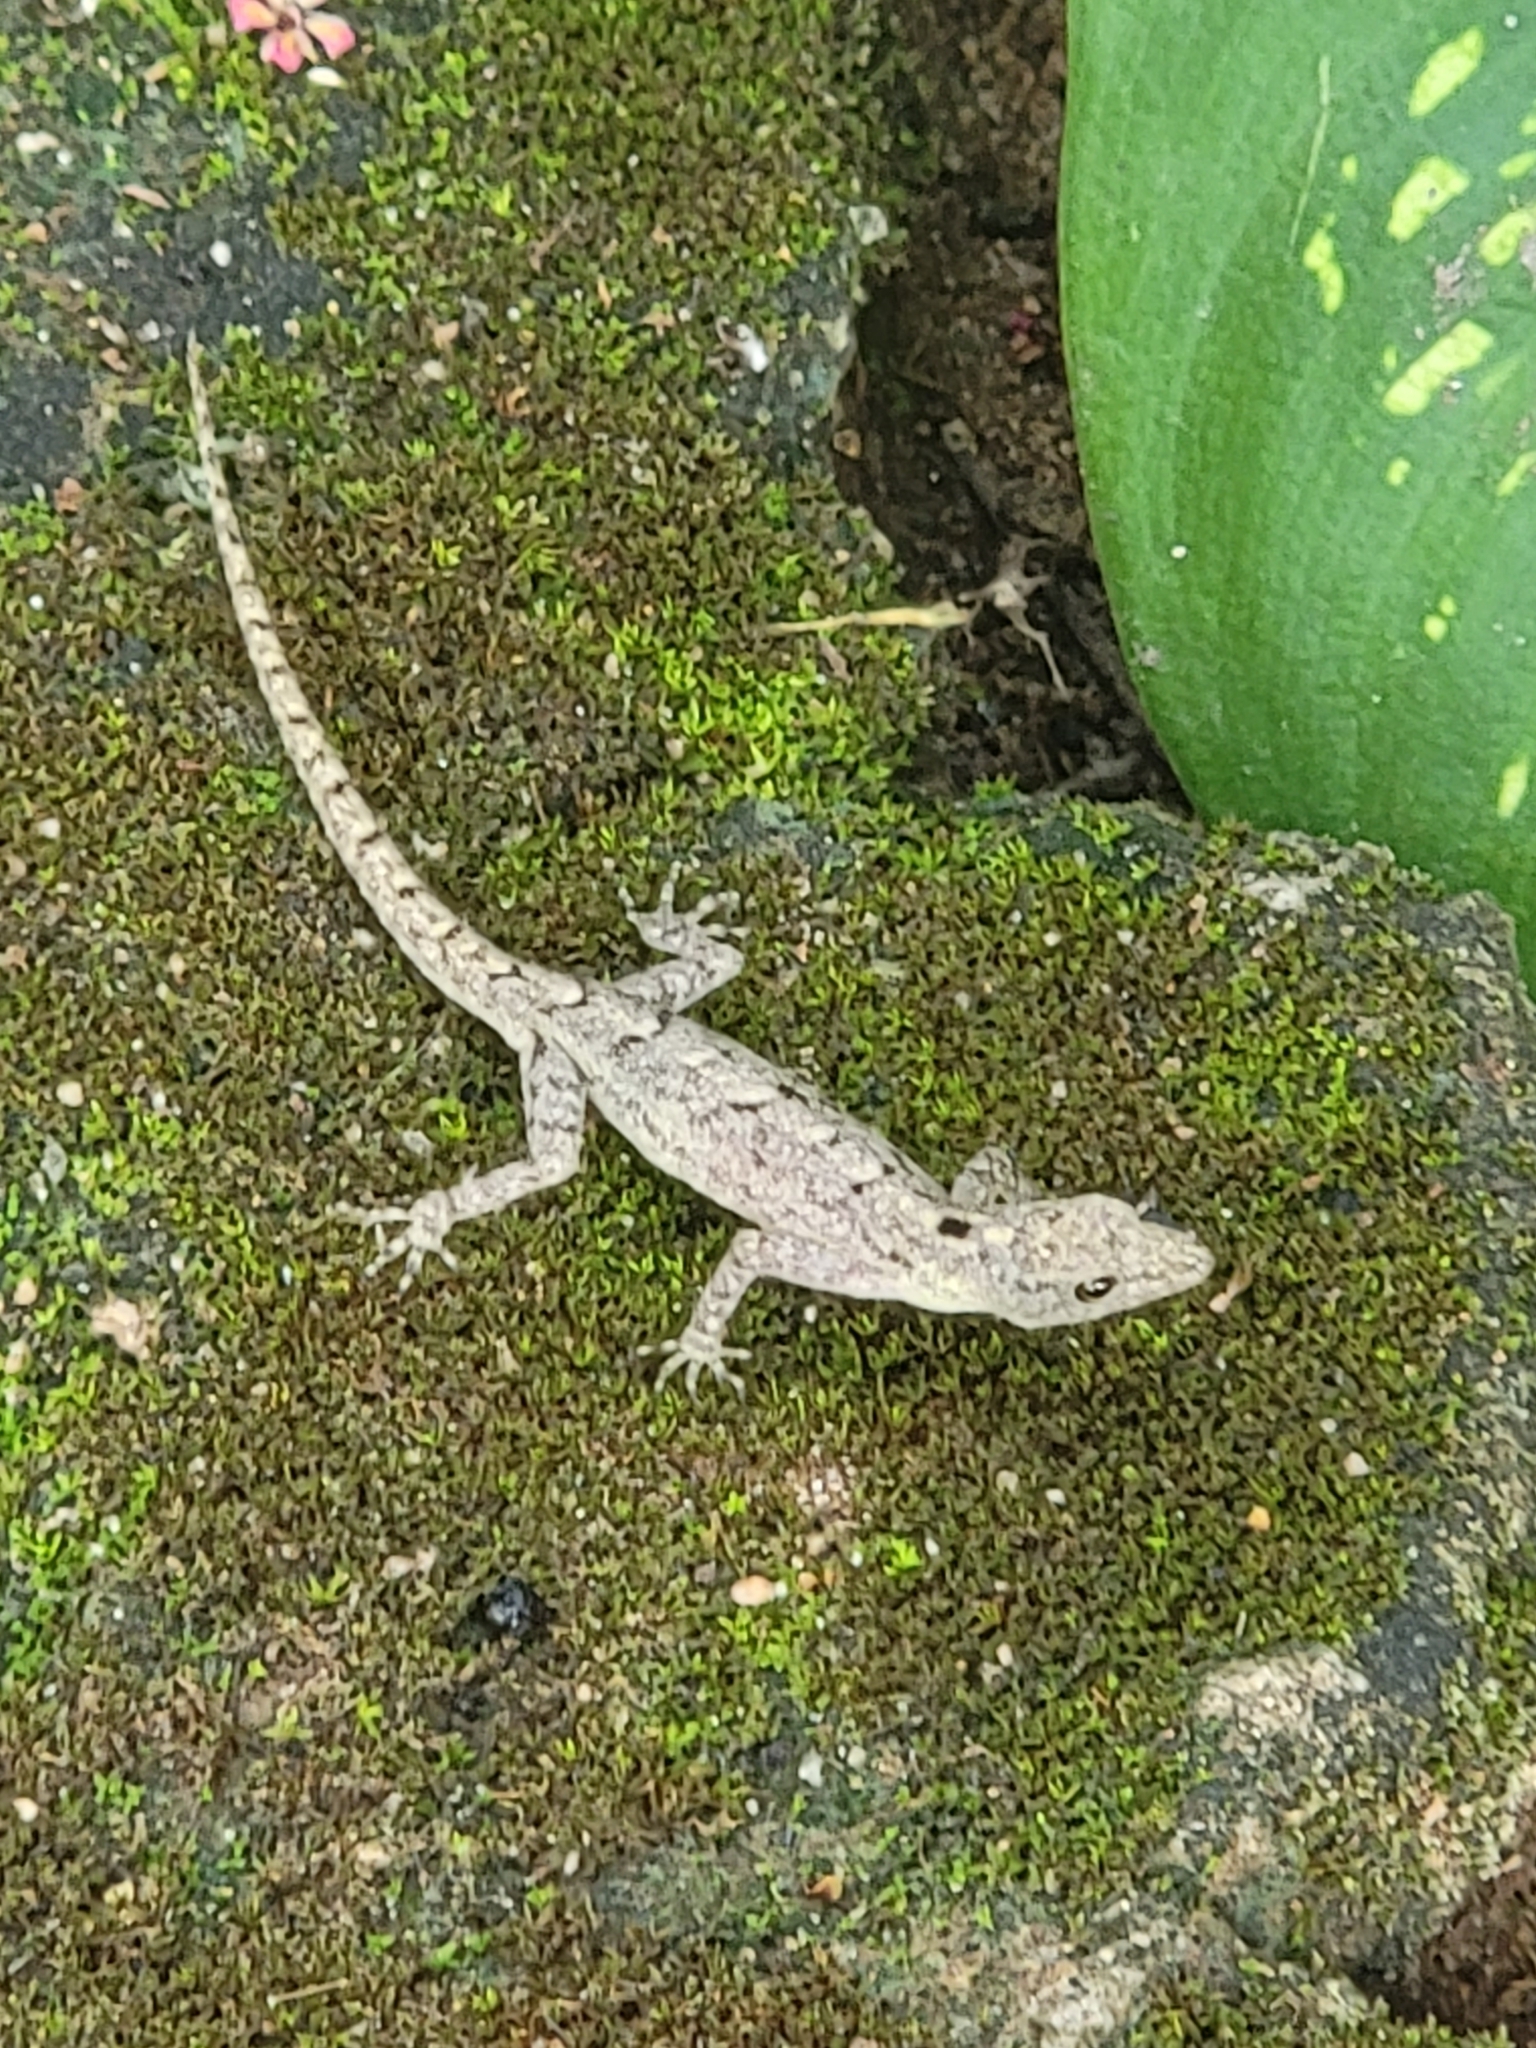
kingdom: Animalia
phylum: Chordata
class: Squamata
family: Gekkonidae
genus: Cnemaspis
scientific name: Cnemaspis palakkadensis
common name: Palakkad dwarf gecko
